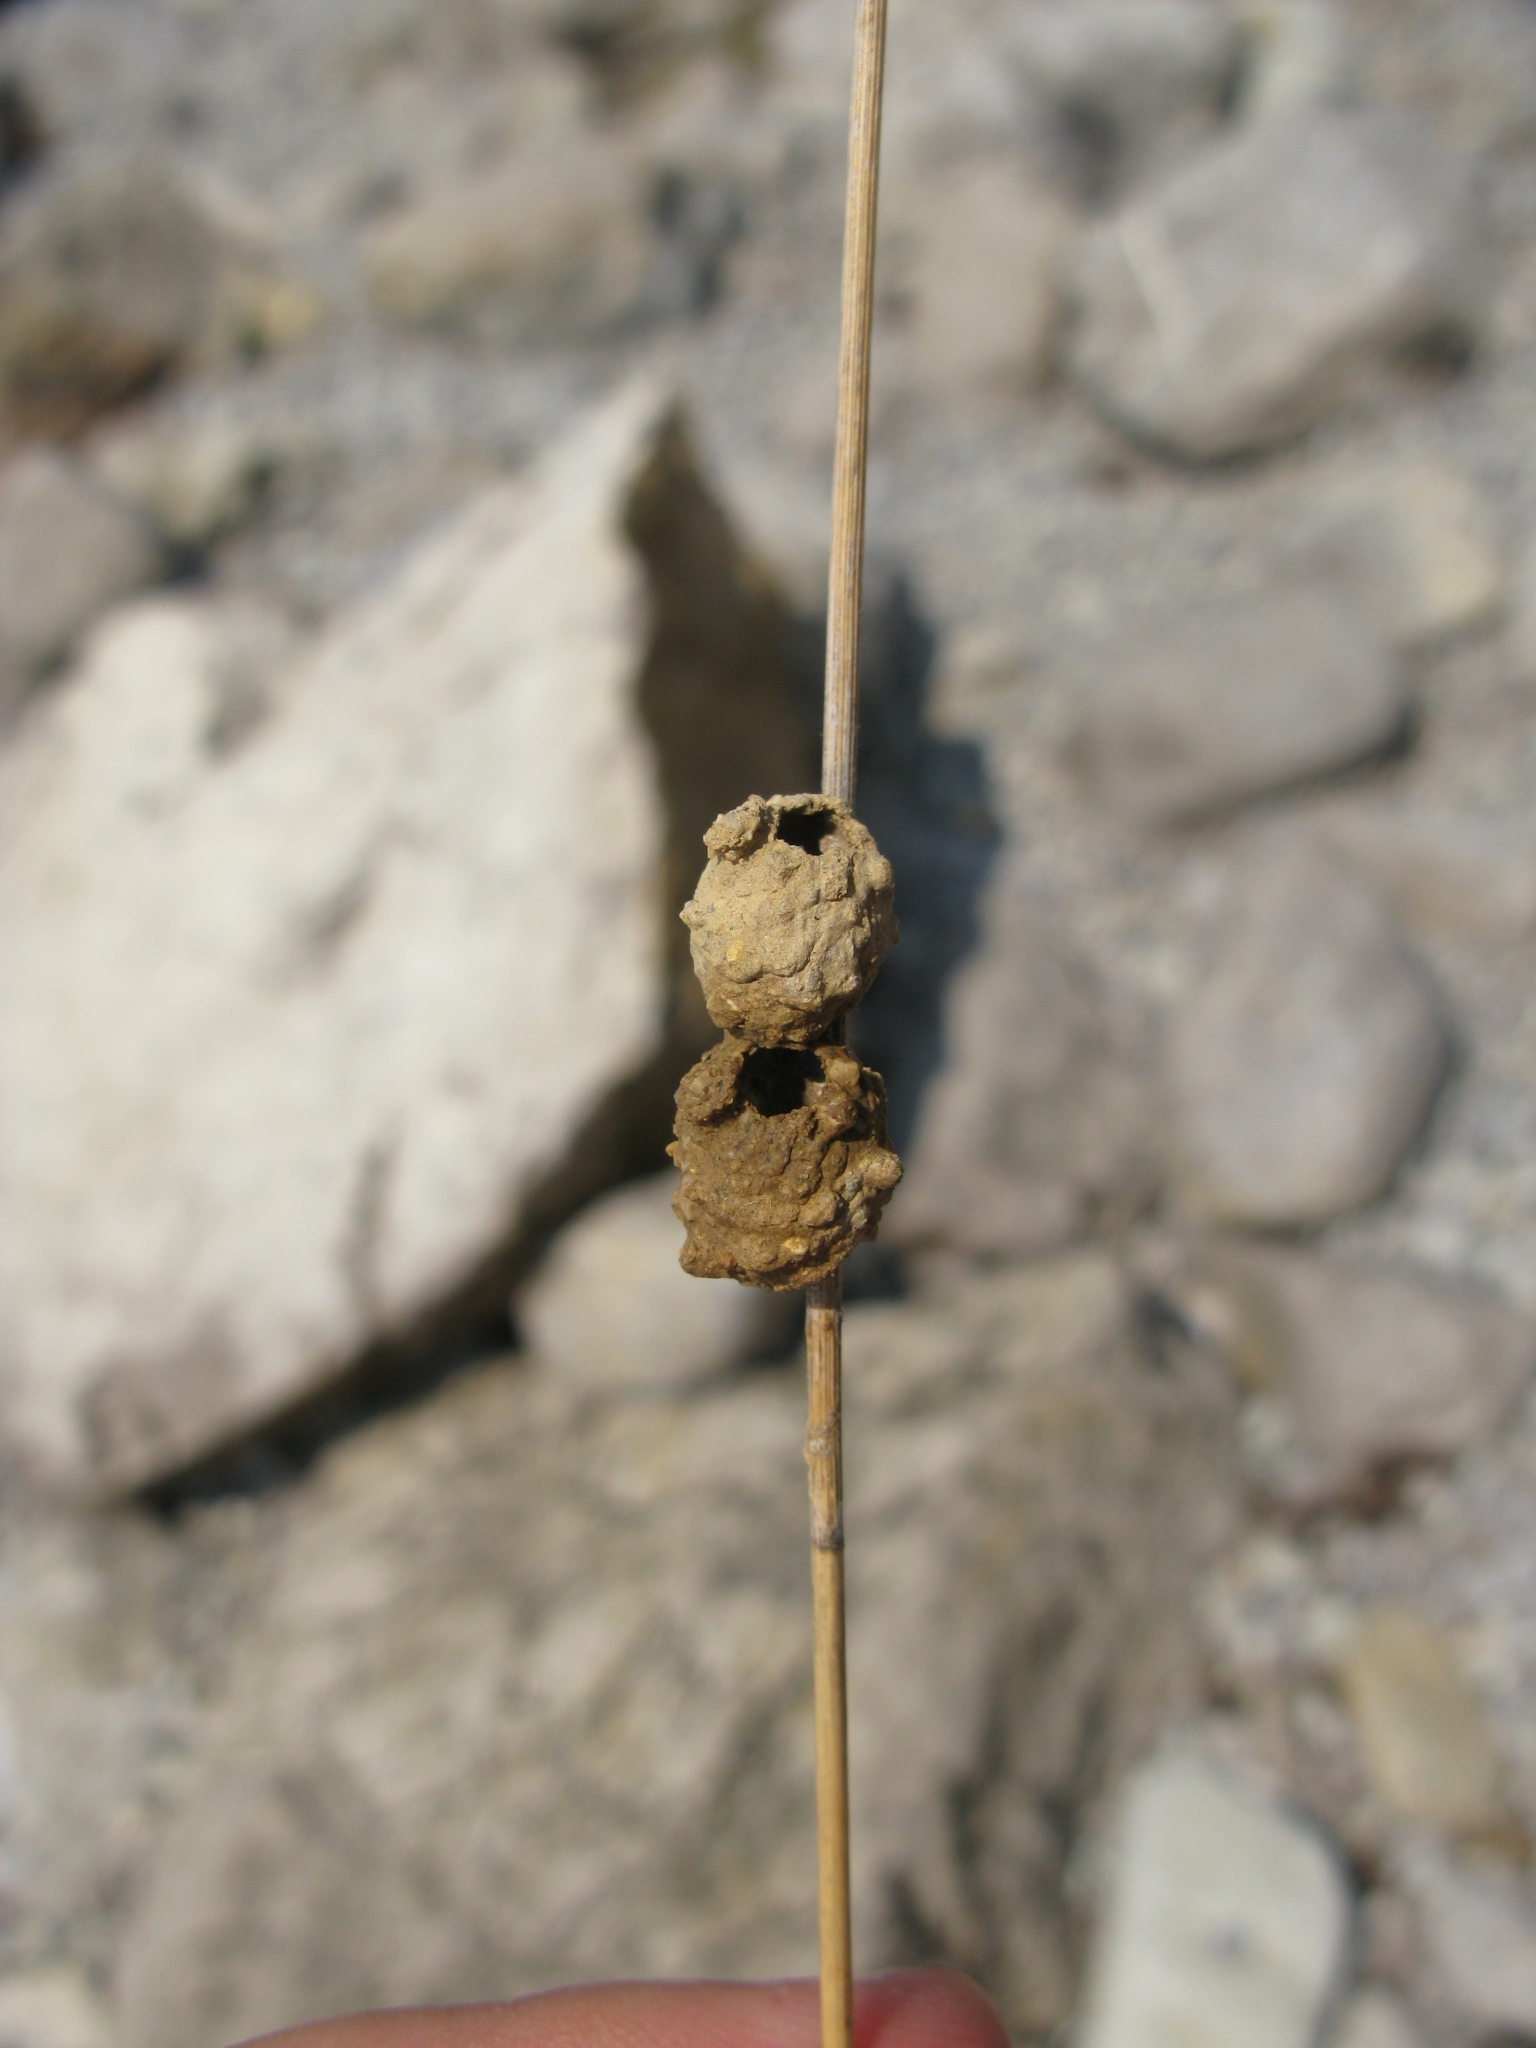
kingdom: Animalia
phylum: Arthropoda
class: Insecta
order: Hymenoptera
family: Vespidae
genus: Eumenes
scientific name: Eumenes
